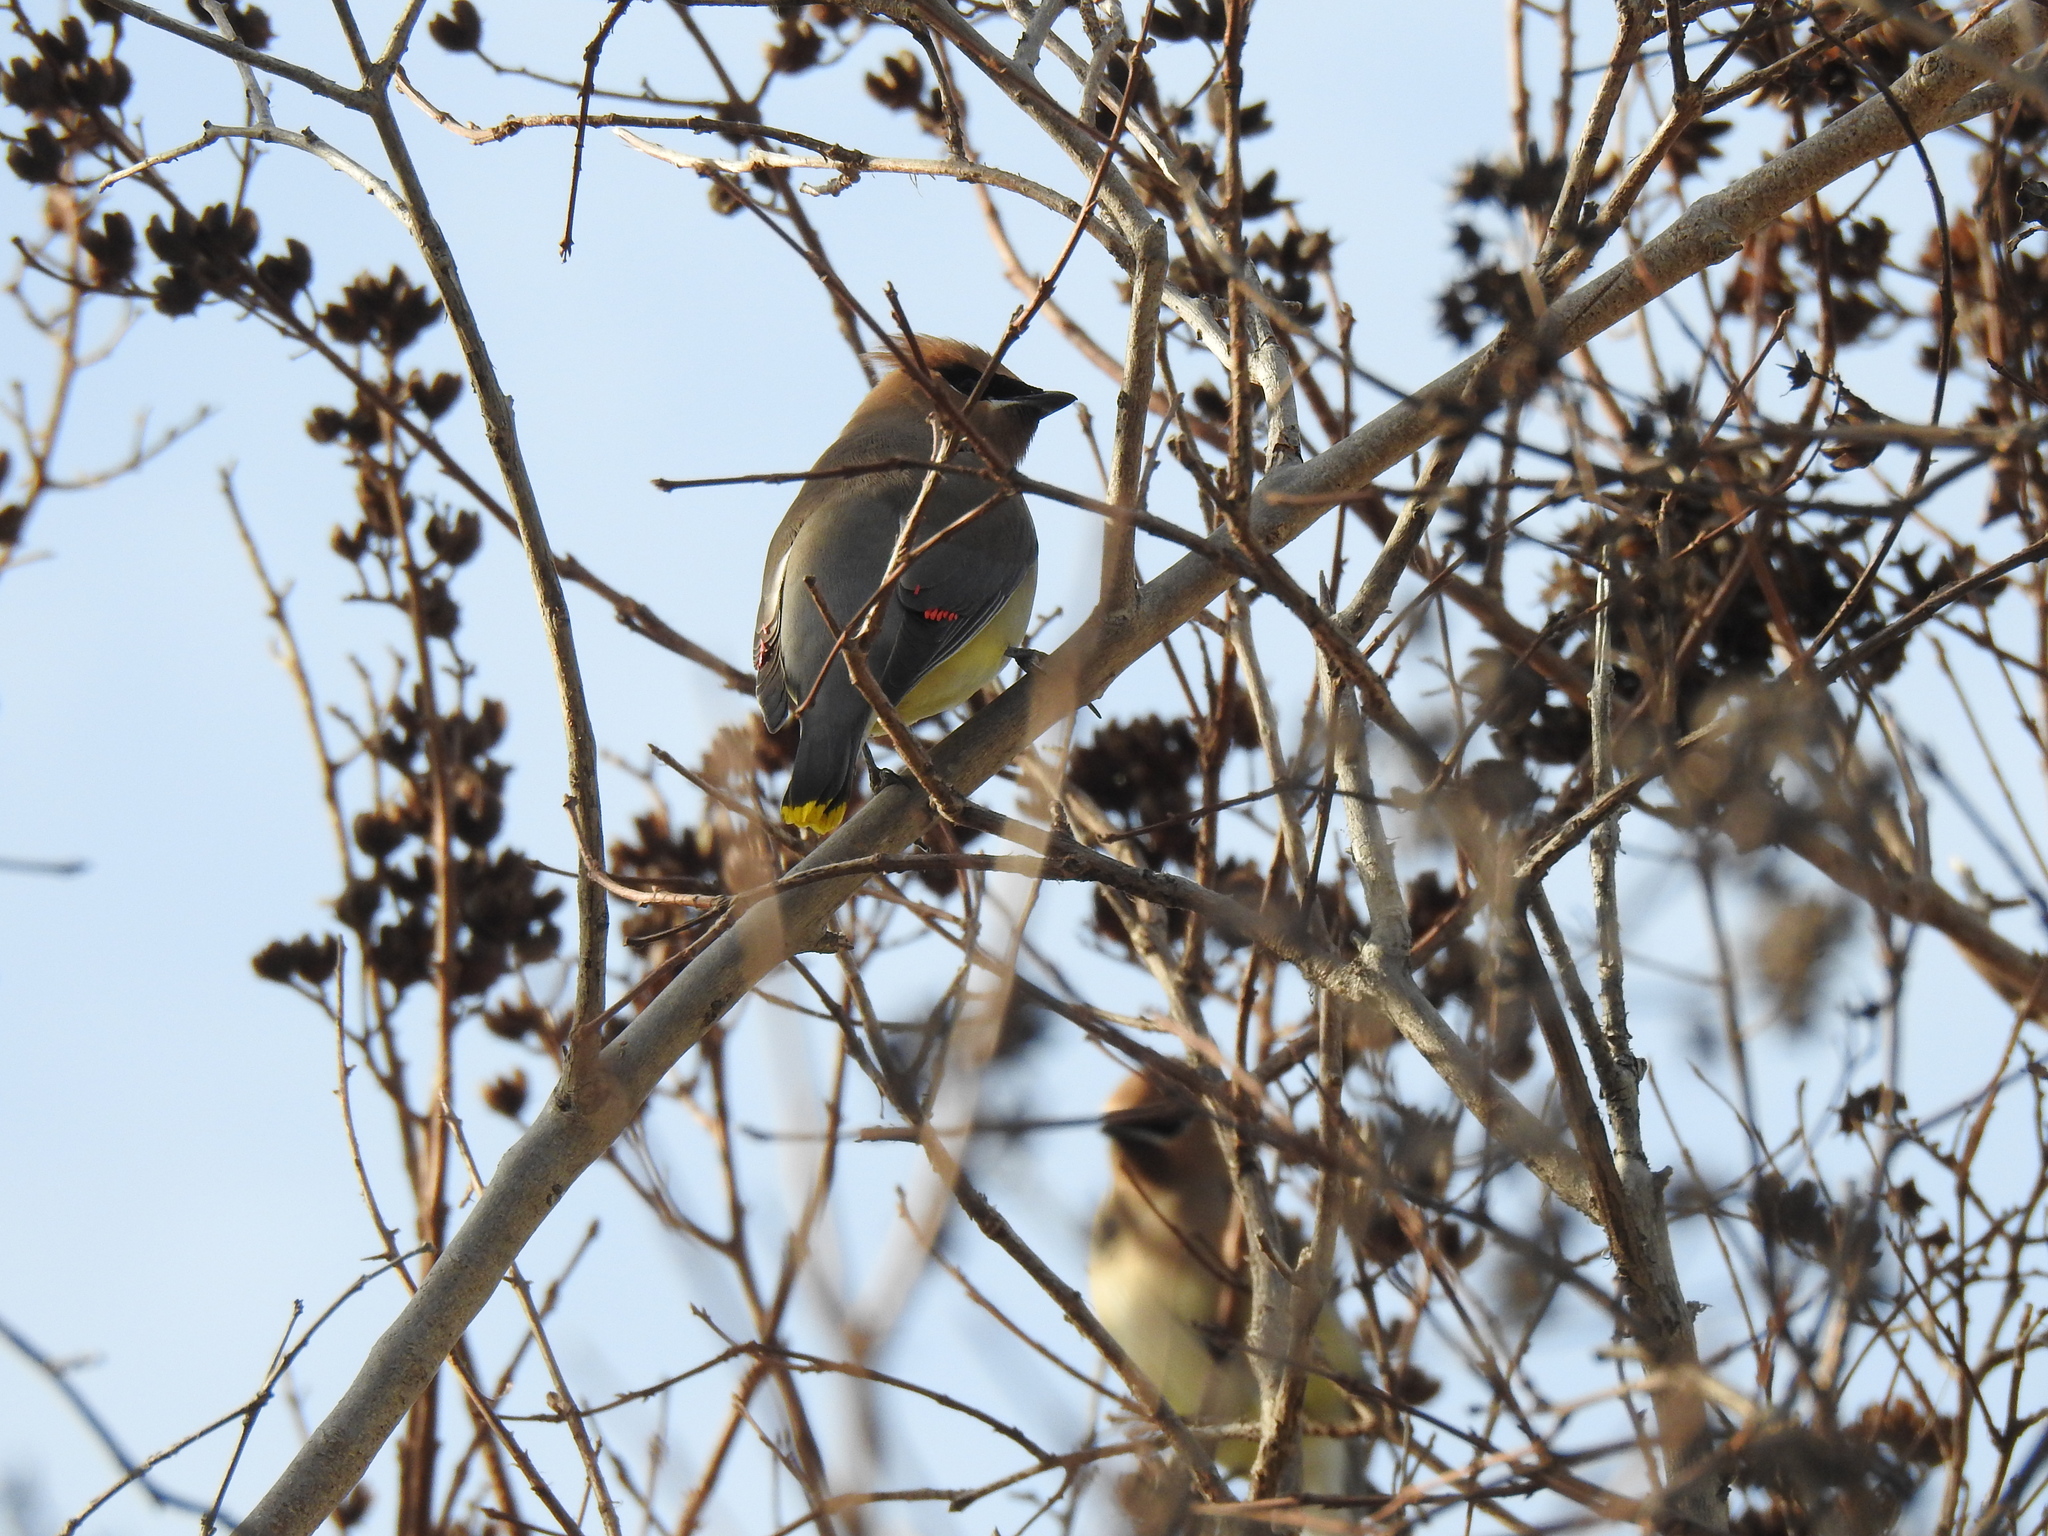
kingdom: Animalia
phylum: Chordata
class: Aves
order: Passeriformes
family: Bombycillidae
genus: Bombycilla
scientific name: Bombycilla cedrorum
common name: Cedar waxwing
